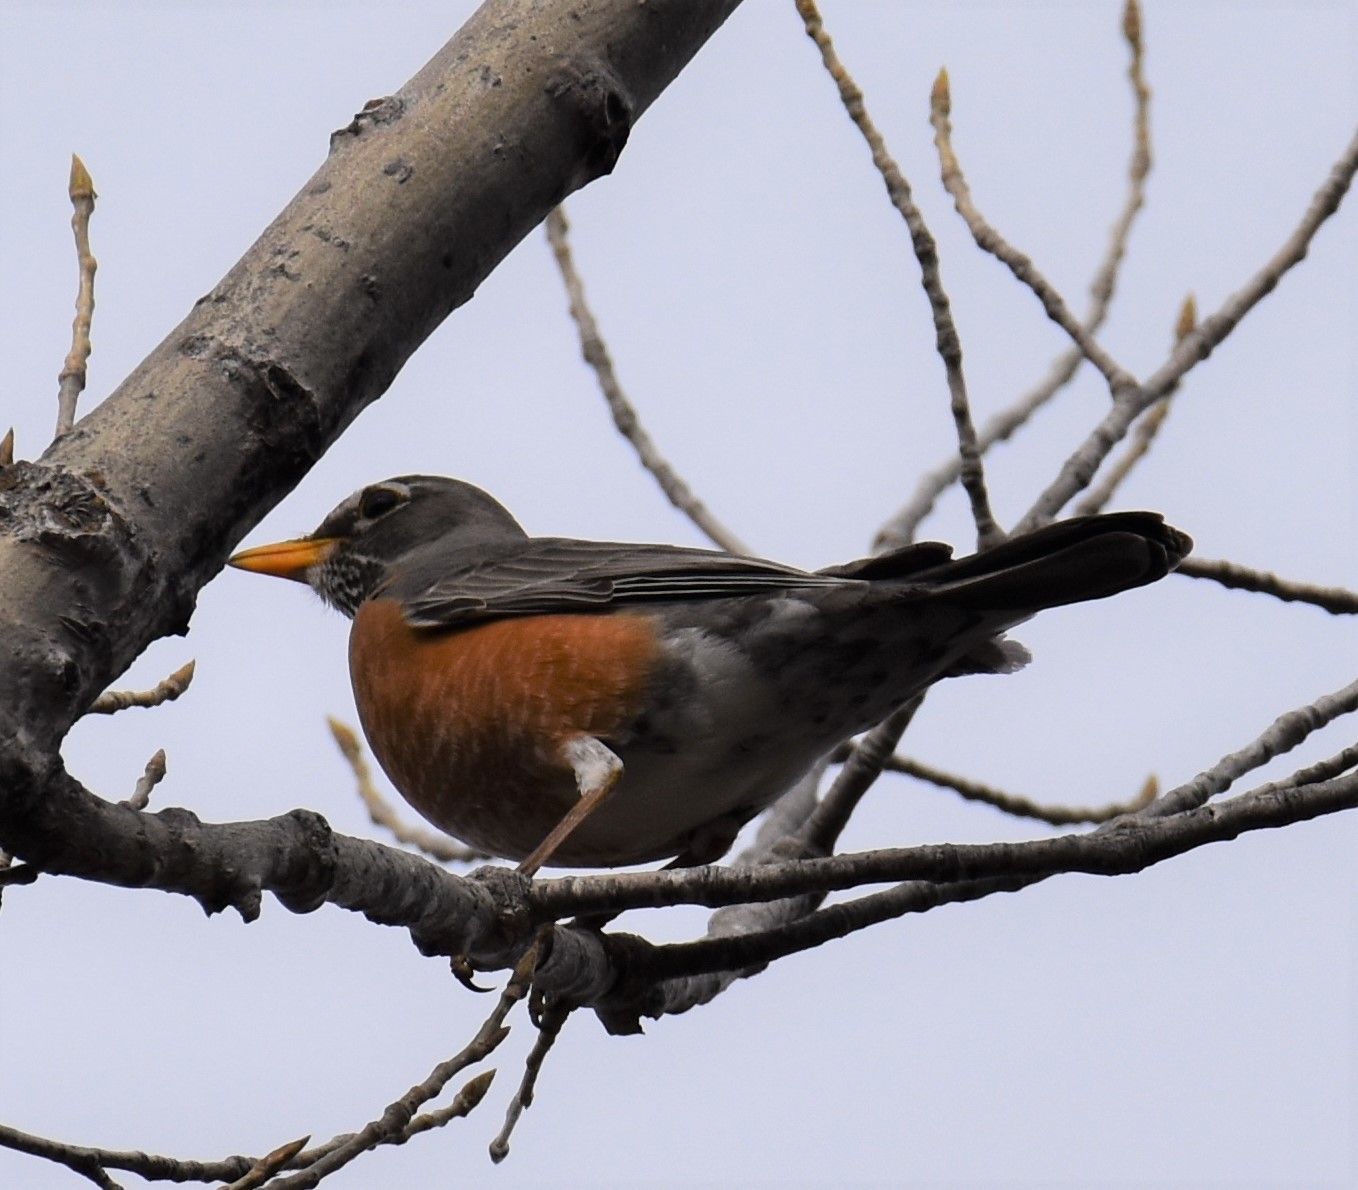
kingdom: Animalia
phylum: Chordata
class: Aves
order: Passeriformes
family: Turdidae
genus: Turdus
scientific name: Turdus migratorius
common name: American robin
